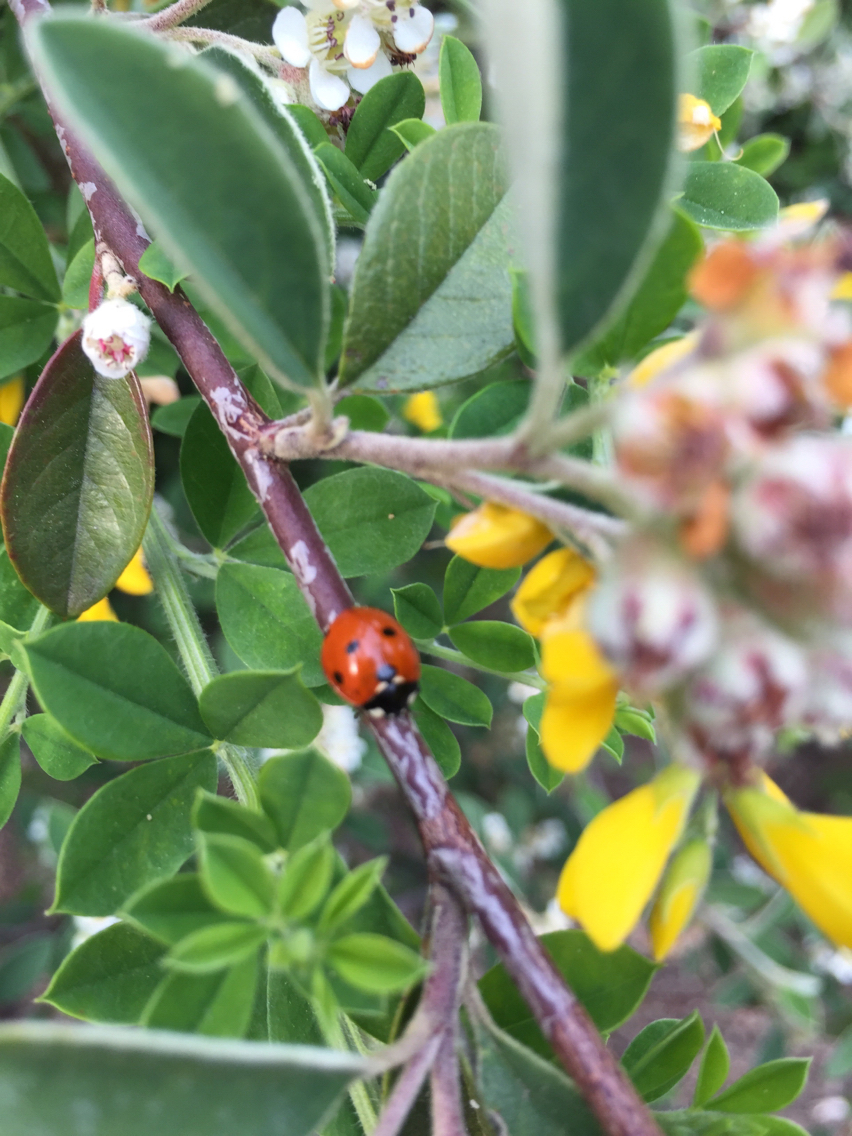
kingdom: Animalia
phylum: Arthropoda
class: Insecta
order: Coleoptera
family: Coccinellidae
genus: Coccinella
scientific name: Coccinella septempunctata
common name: Sevenspotted lady beetle
